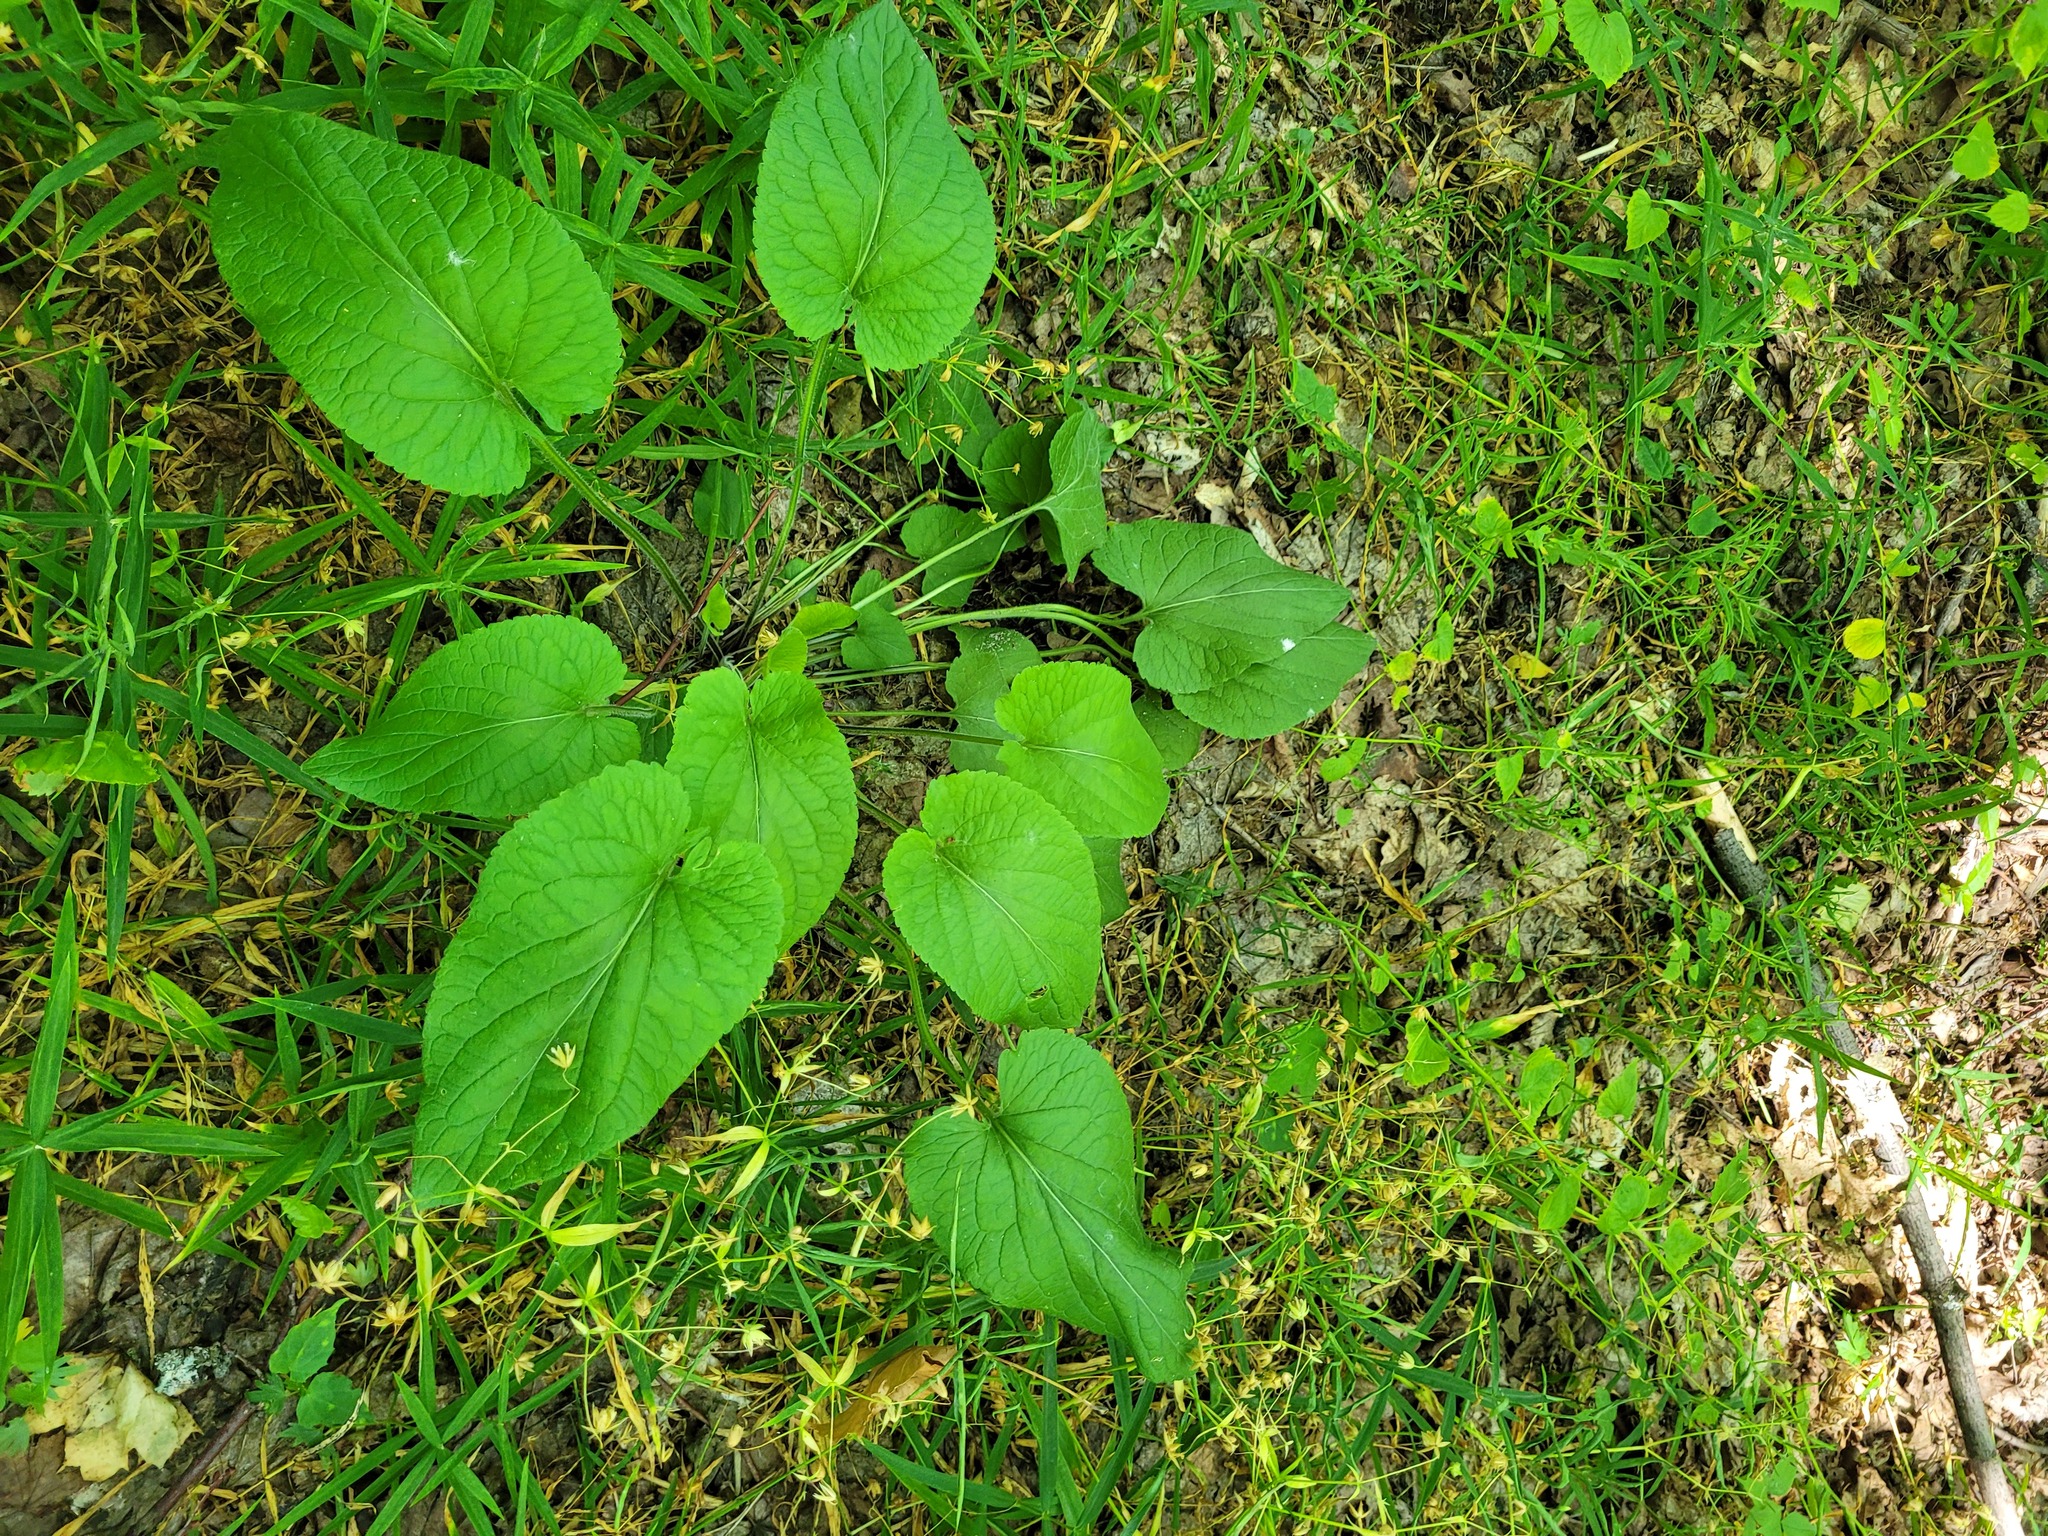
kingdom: Plantae
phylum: Tracheophyta
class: Magnoliopsida
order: Malpighiales
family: Violaceae
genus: Viola
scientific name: Viola hirta
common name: Hairy violet
